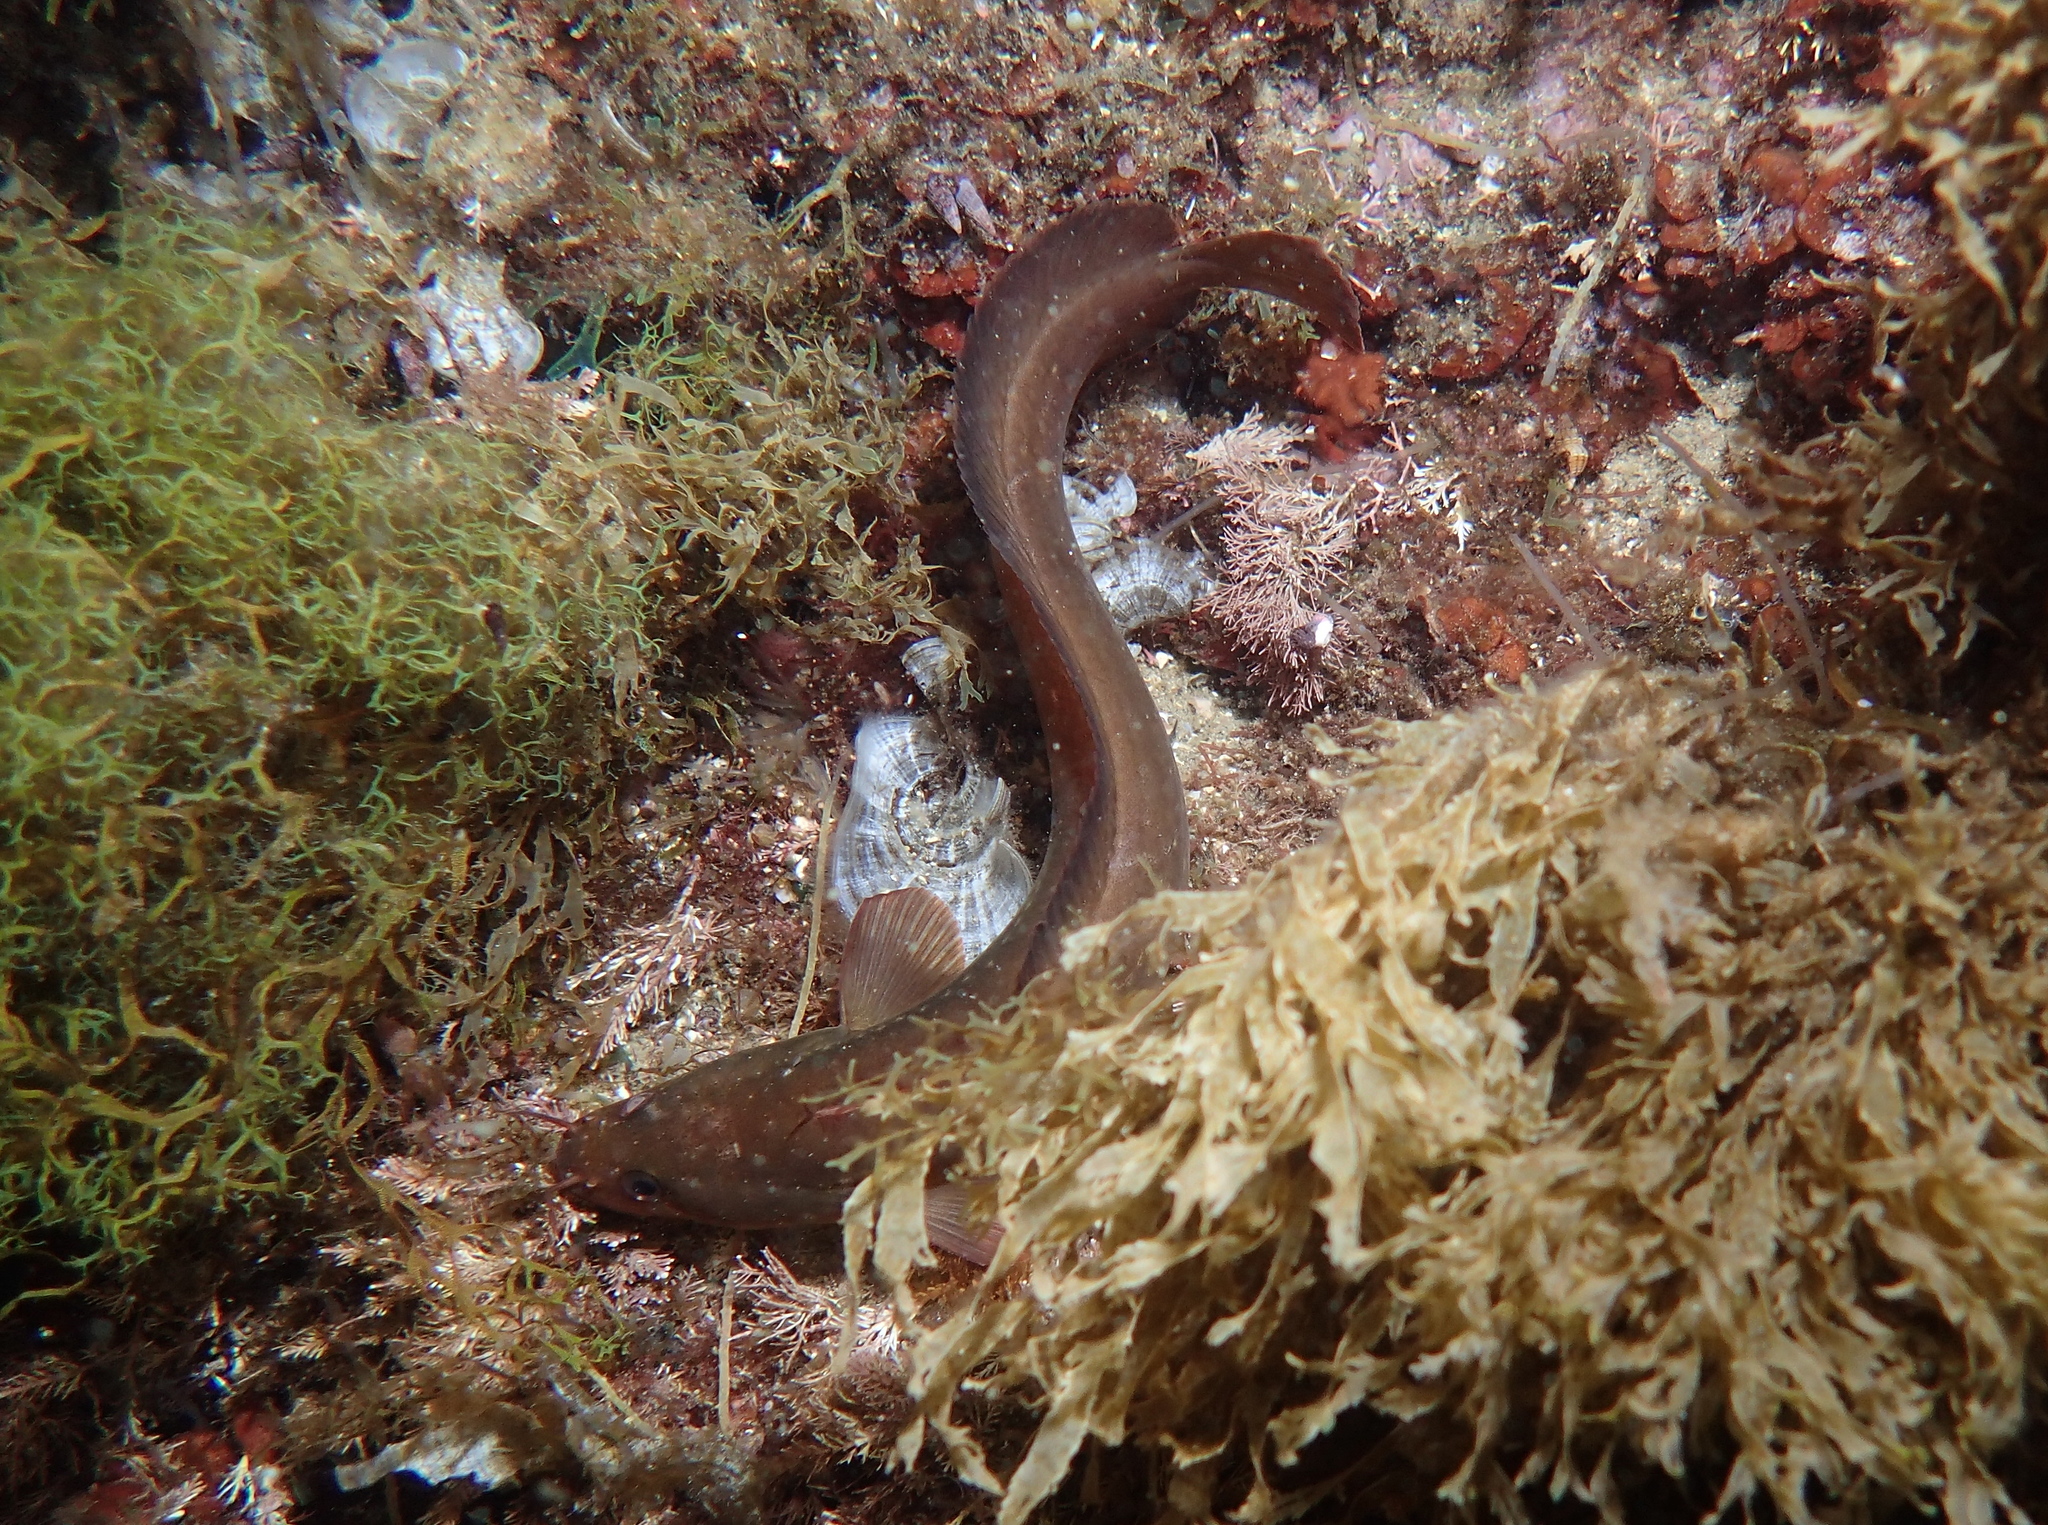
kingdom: Animalia
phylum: Chordata
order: Gadiformes
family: Lotidae
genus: Gaidropsarus
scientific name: Gaidropsarus mediterraneus
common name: Shore rockling
